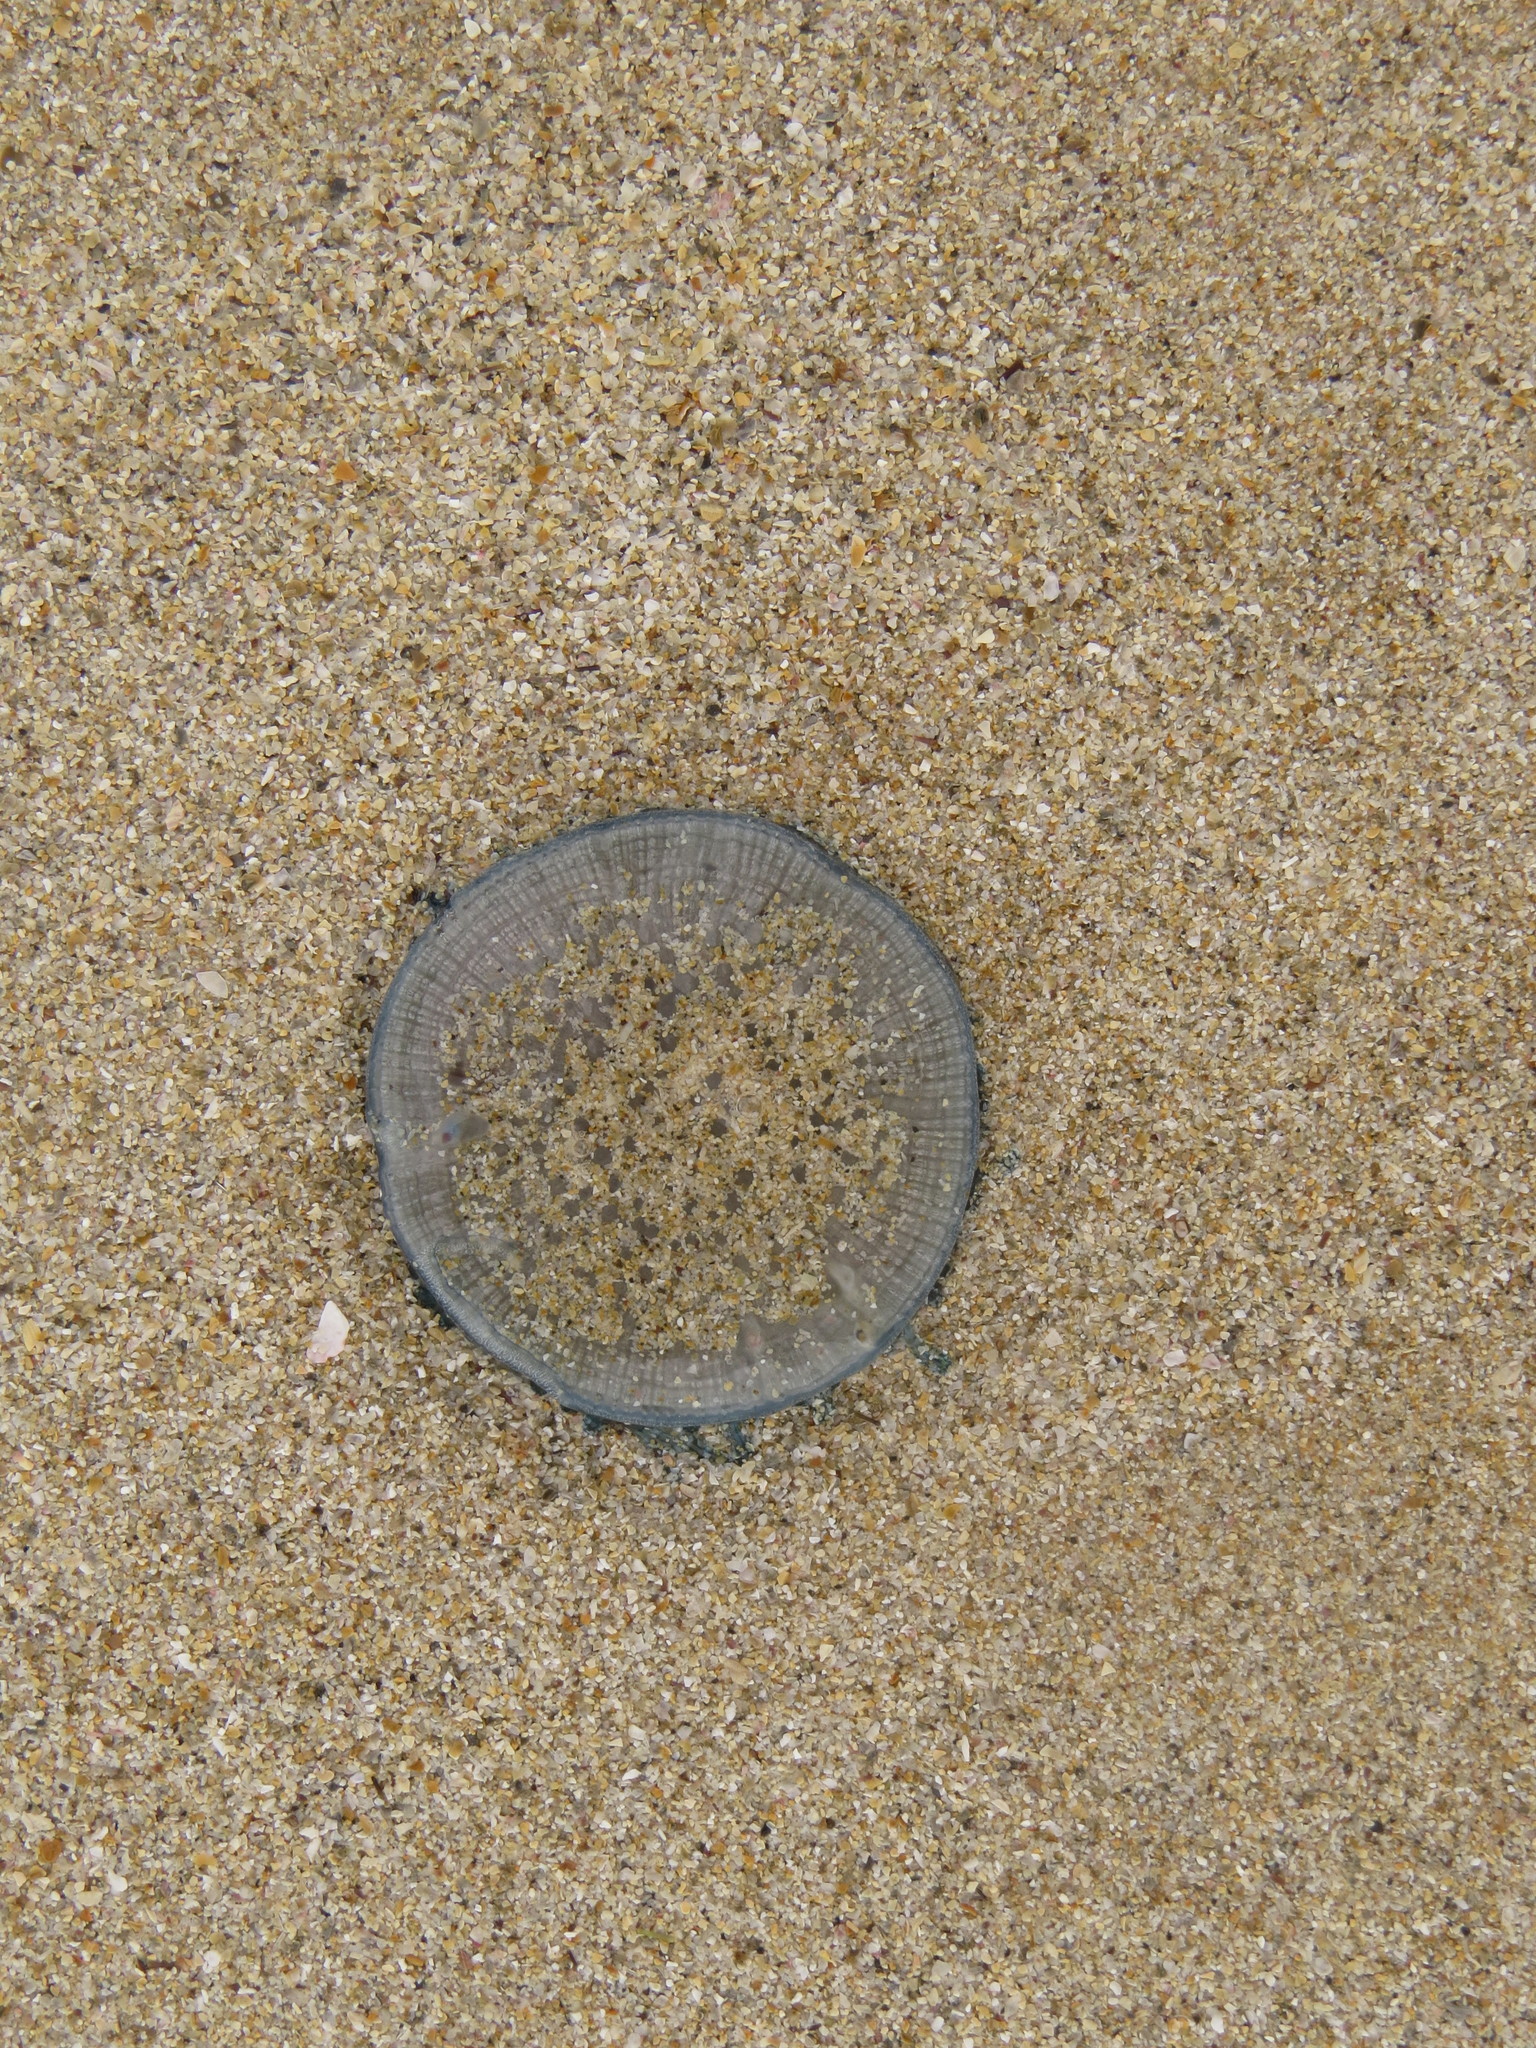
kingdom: Animalia
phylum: Cnidaria
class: Hydrozoa
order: Anthoathecata
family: Porpitidae
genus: Porpita
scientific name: Porpita porpita
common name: Blue button
